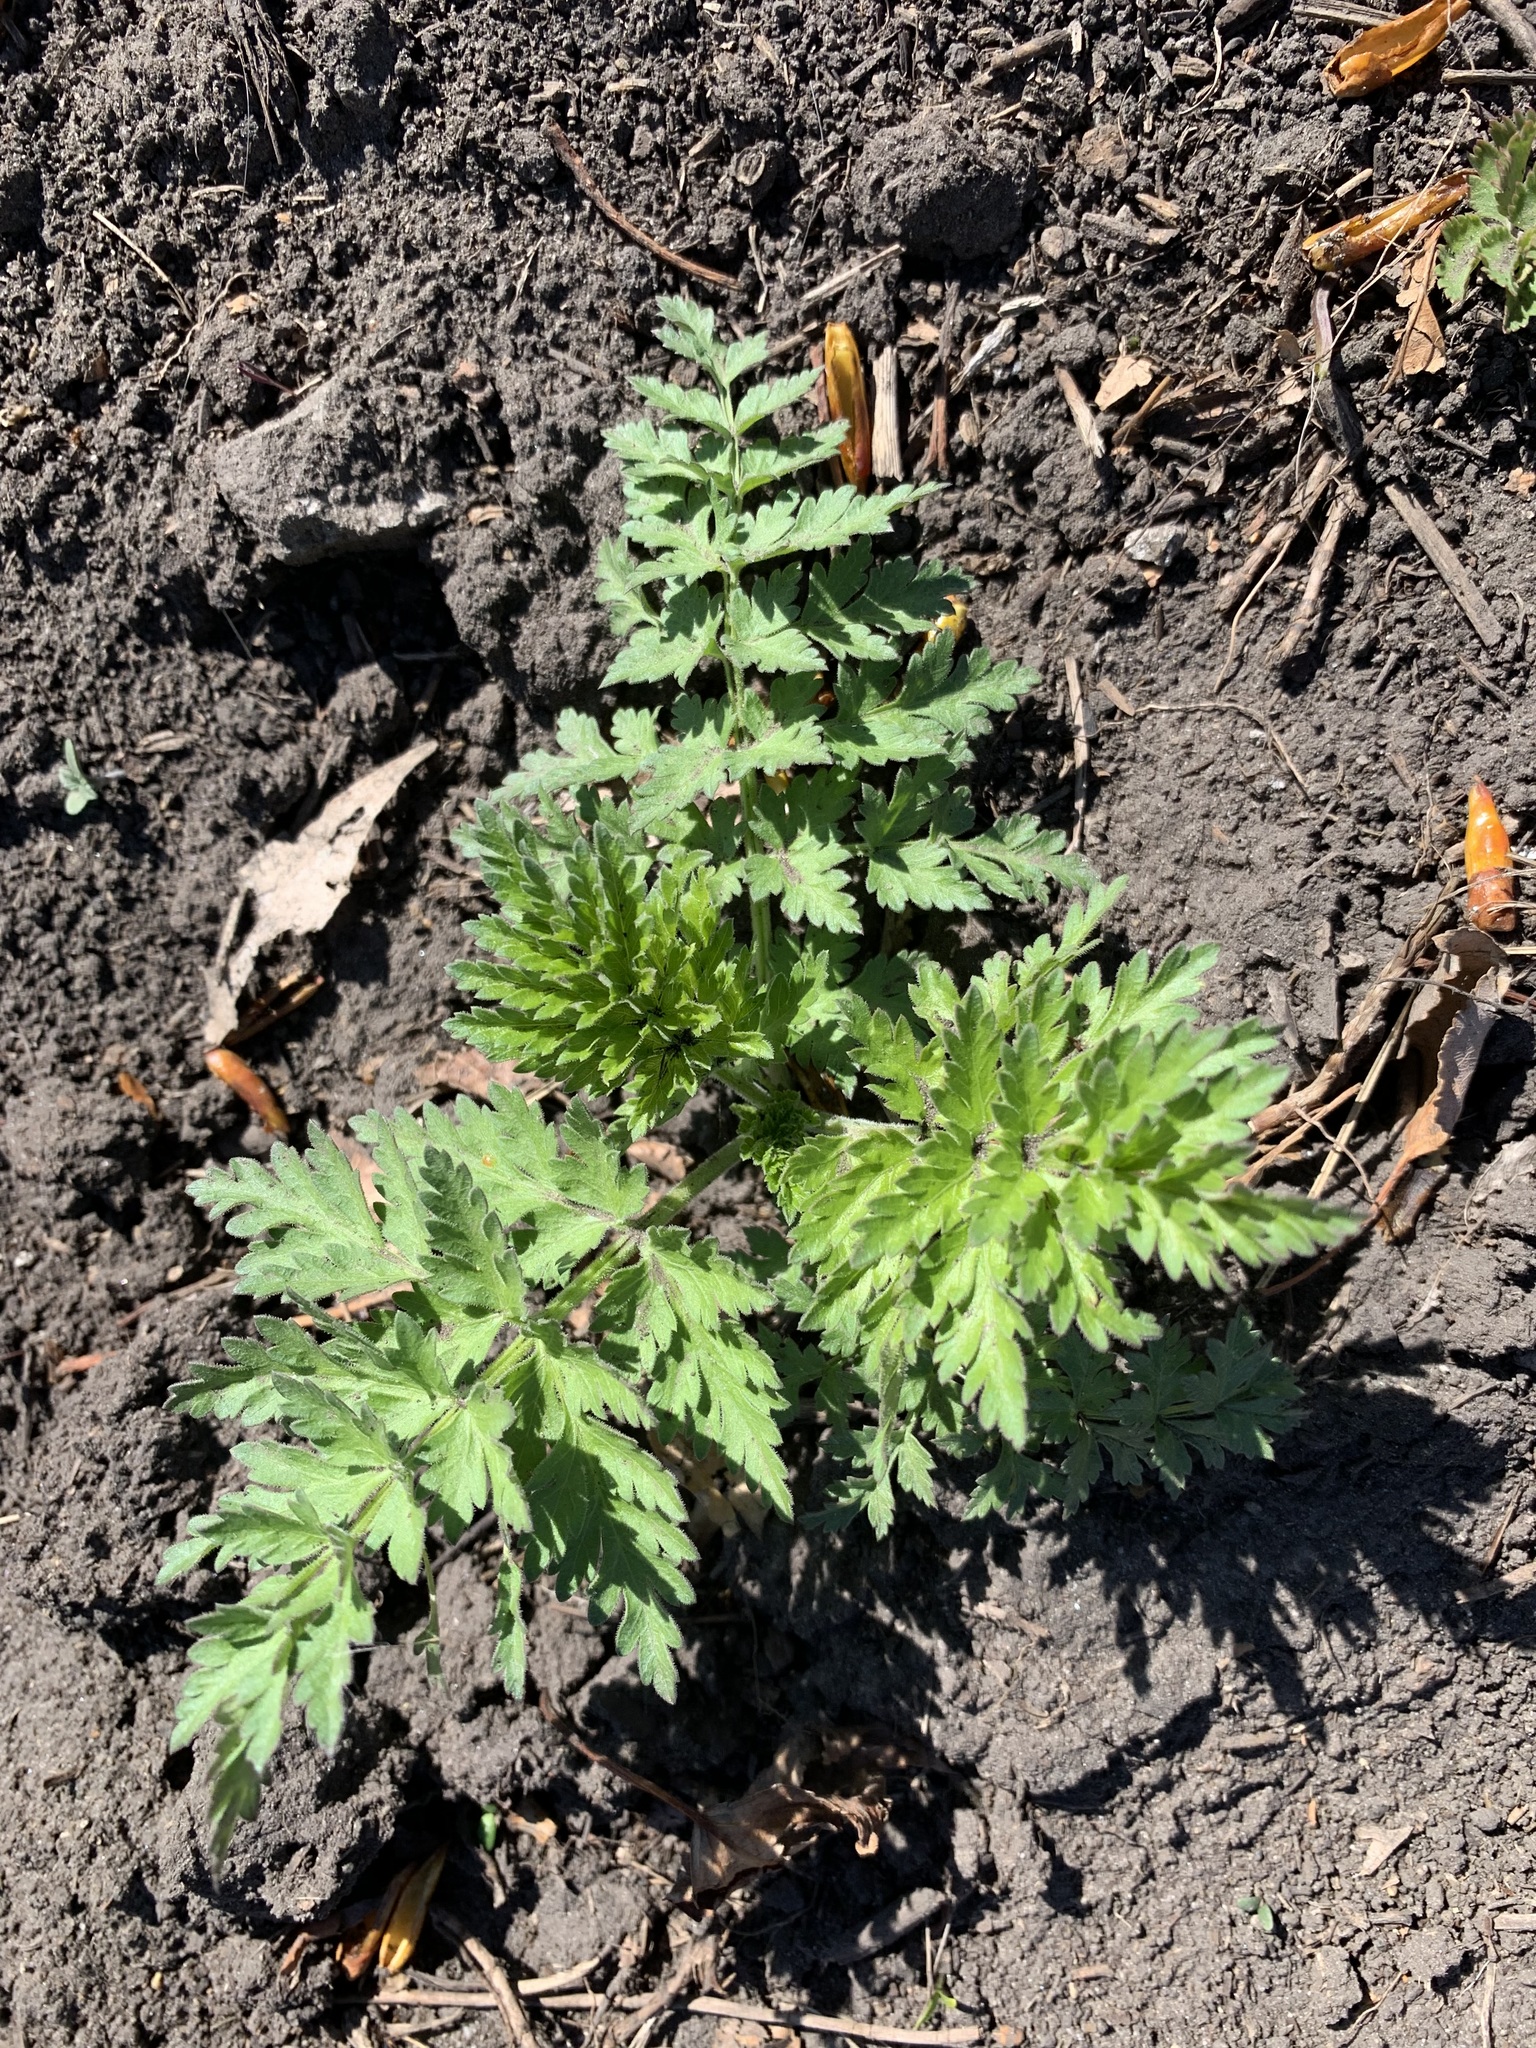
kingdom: Plantae
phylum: Tracheophyta
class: Magnoliopsida
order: Apiales
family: Apiaceae
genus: Seseli
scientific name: Seseli libanotis
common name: Mooncarrot
